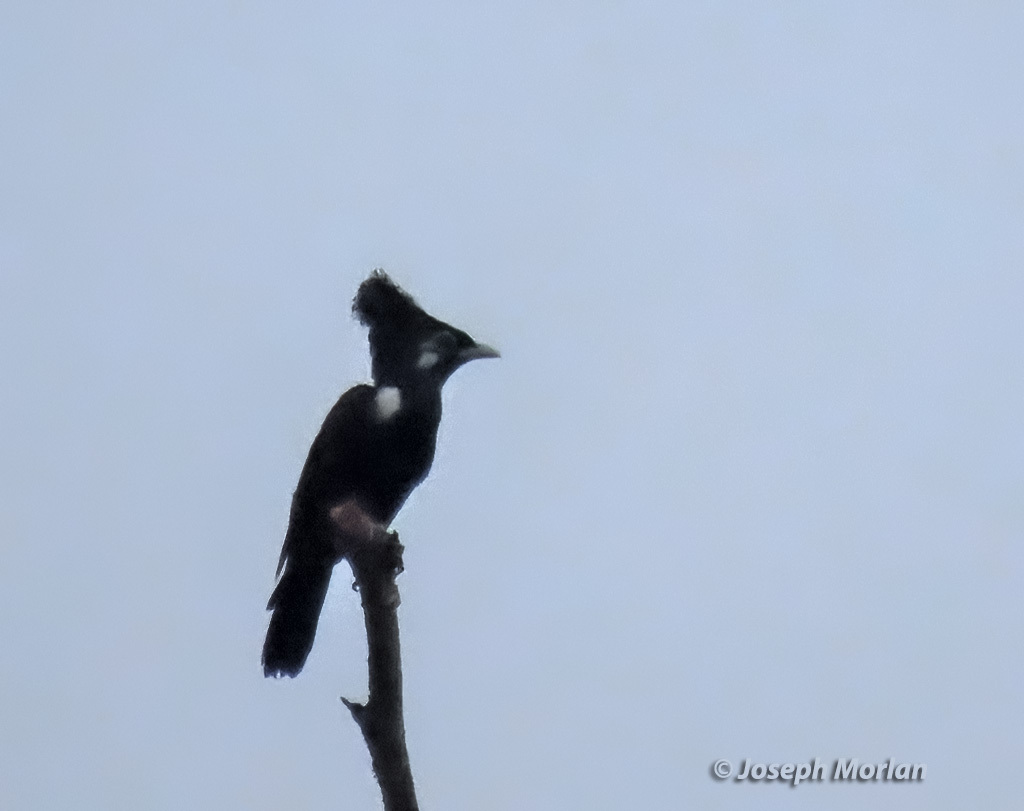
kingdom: Animalia
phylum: Chordata
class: Aves
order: Passeriformes
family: Sturnidae
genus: Basilornis
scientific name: Basilornis corythaix
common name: Long-crested myna
